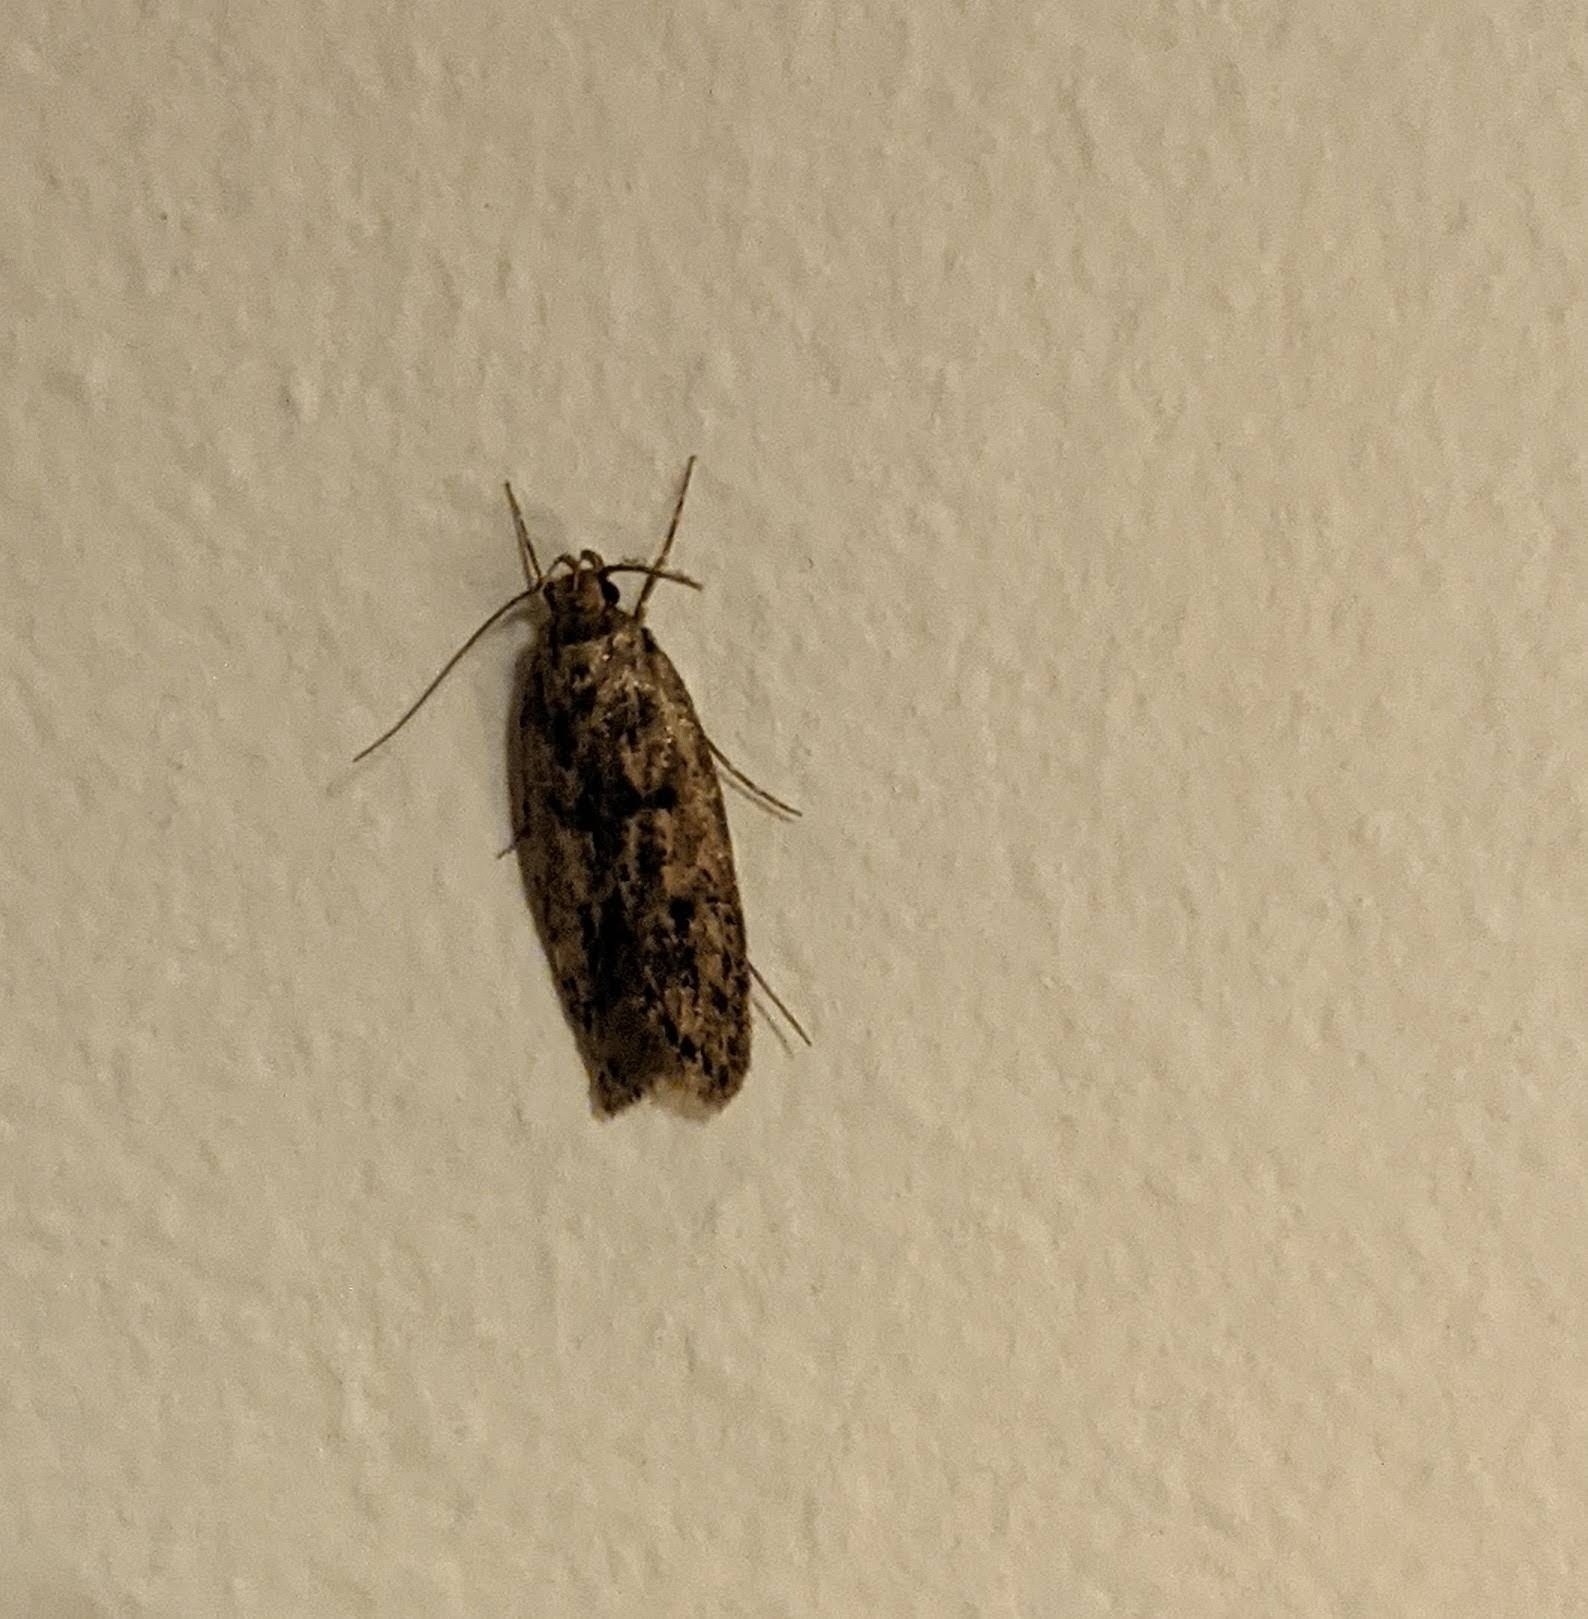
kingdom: Animalia
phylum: Arthropoda
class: Insecta
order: Lepidoptera
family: Oecophoridae
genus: Hofmannophila
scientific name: Hofmannophila pseudospretella
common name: Brown house moth
